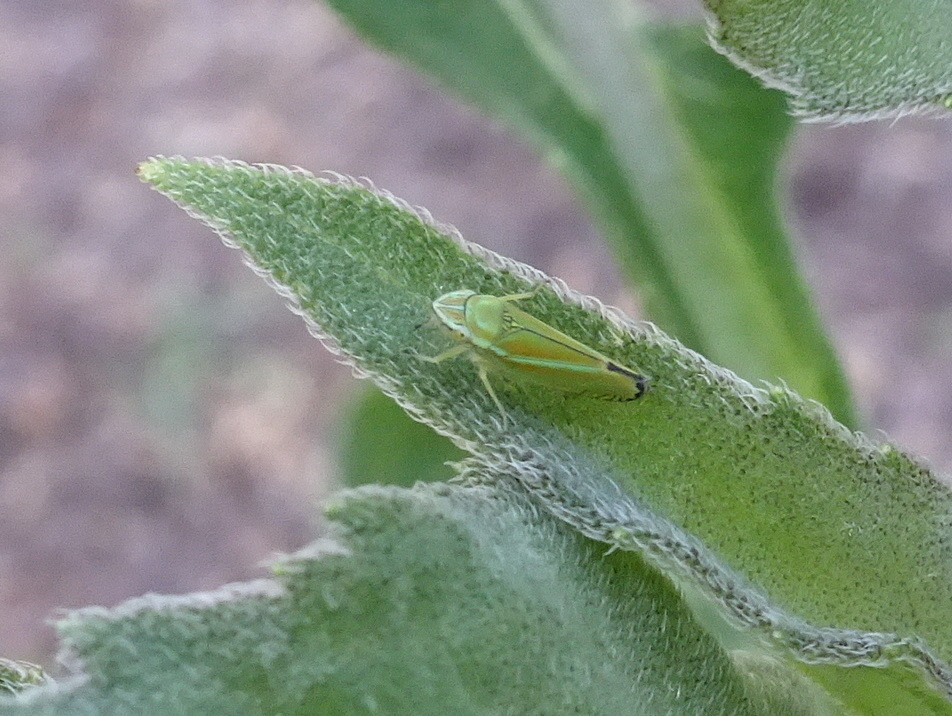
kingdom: Animalia
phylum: Arthropoda
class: Insecta
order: Hemiptera
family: Cicadellidae
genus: Graphocephala
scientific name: Graphocephala versuta
